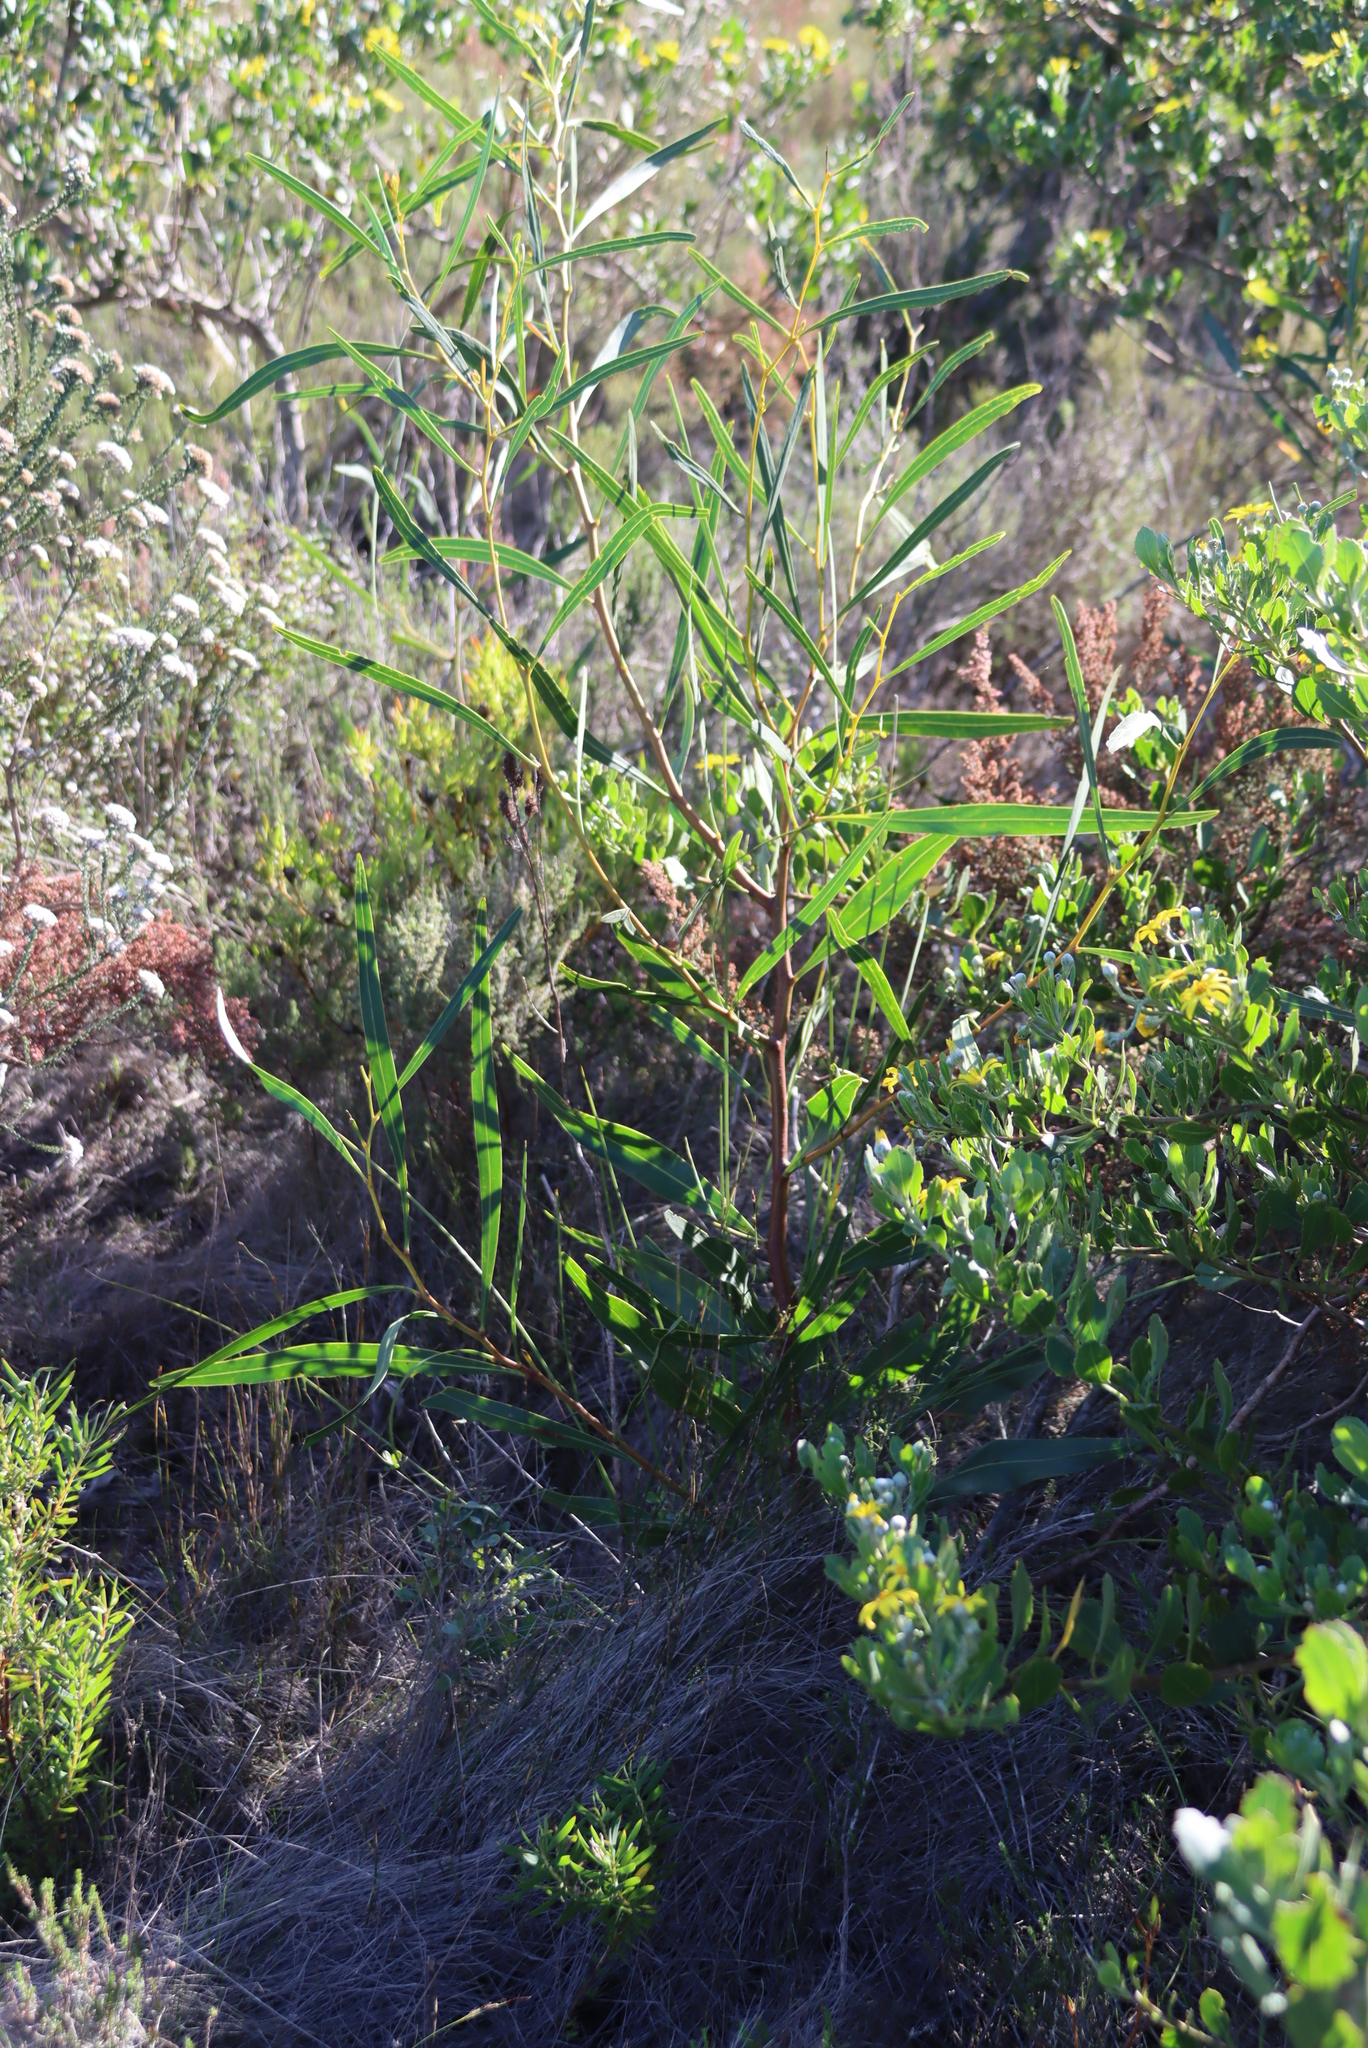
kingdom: Plantae
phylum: Tracheophyta
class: Magnoliopsida
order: Fabales
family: Fabaceae
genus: Acacia
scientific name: Acacia saligna
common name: Orange wattle
